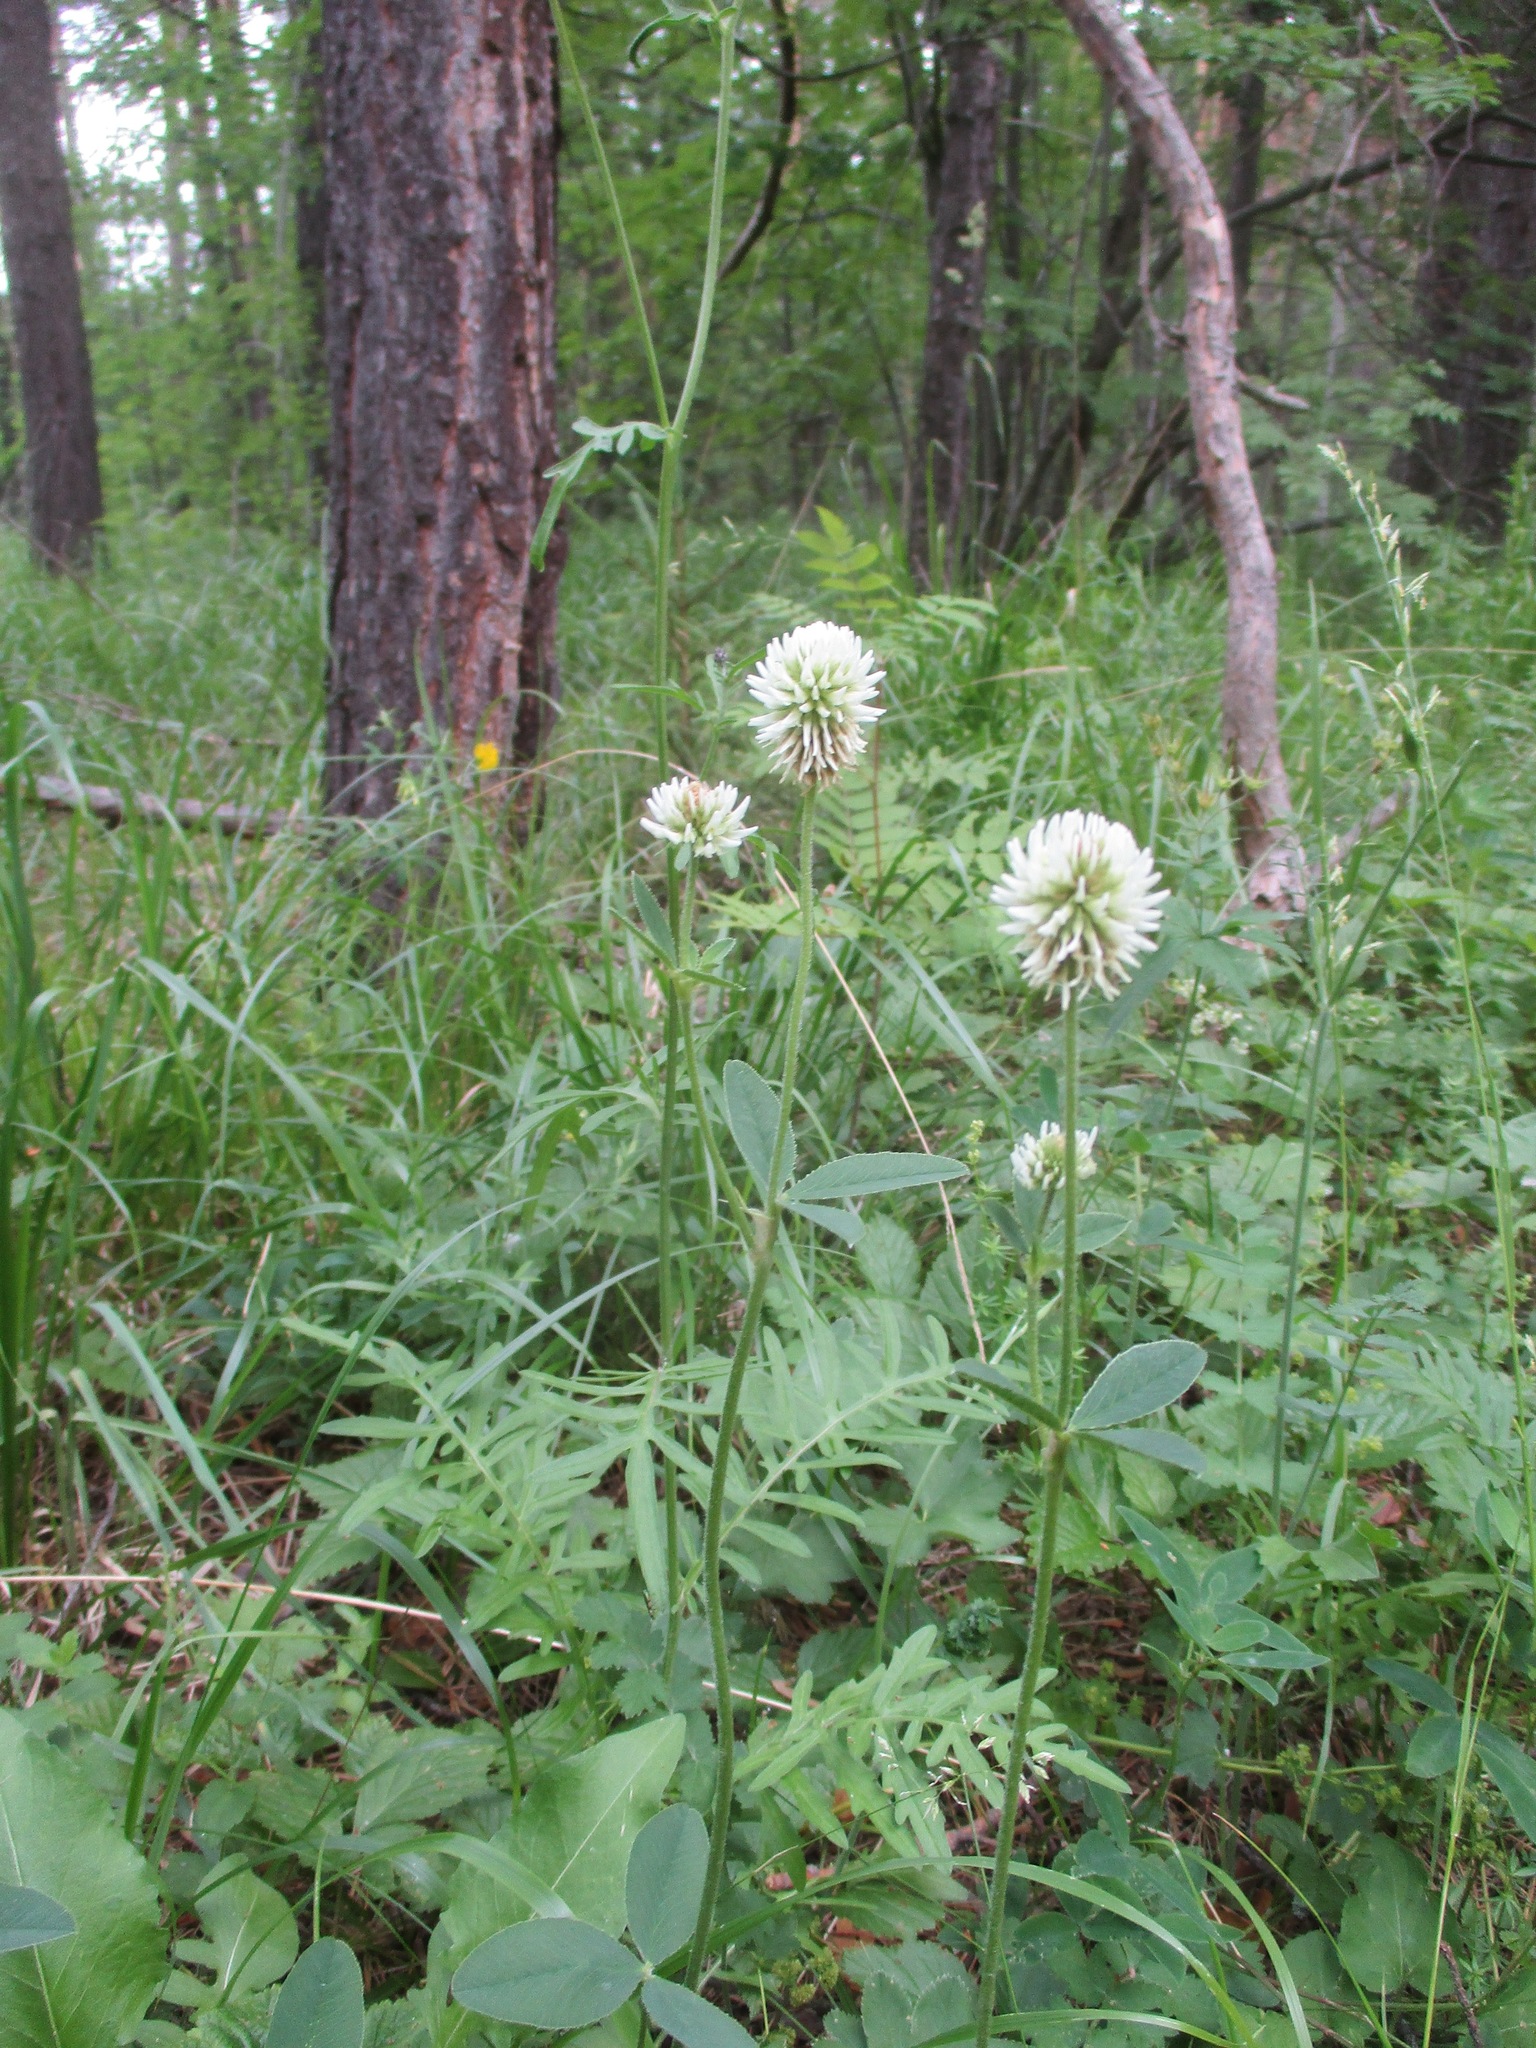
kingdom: Plantae
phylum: Tracheophyta
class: Magnoliopsida
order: Fabales
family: Fabaceae
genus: Trifolium
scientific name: Trifolium montanum
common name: Mountain clover
